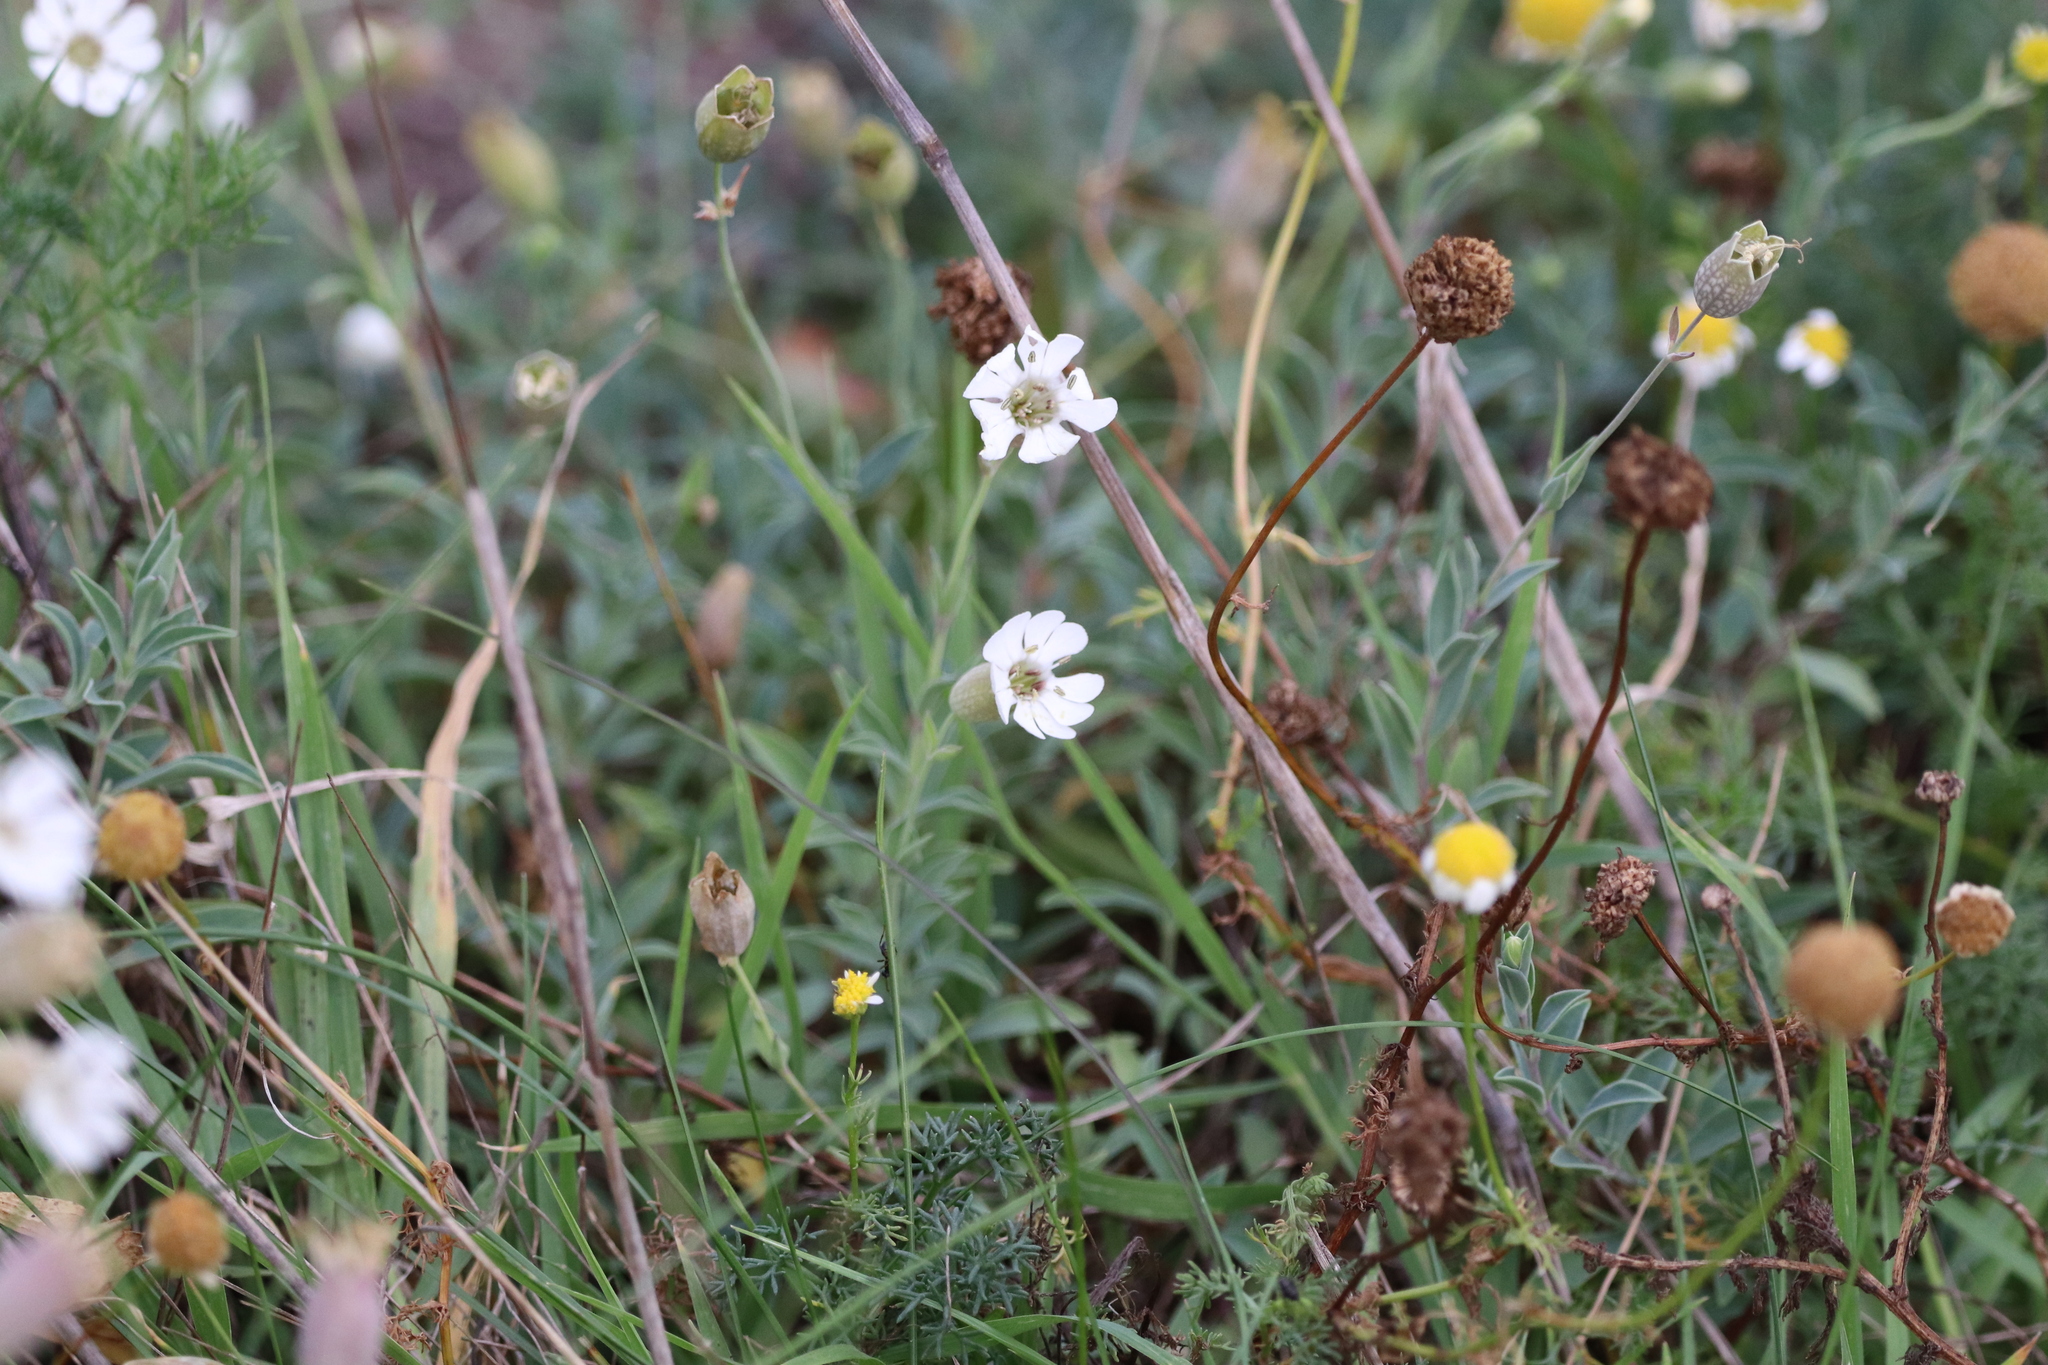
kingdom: Plantae
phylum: Tracheophyta
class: Magnoliopsida
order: Caryophyllales
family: Caryophyllaceae
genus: Silene
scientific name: Silene uniflora
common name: Sea campion
